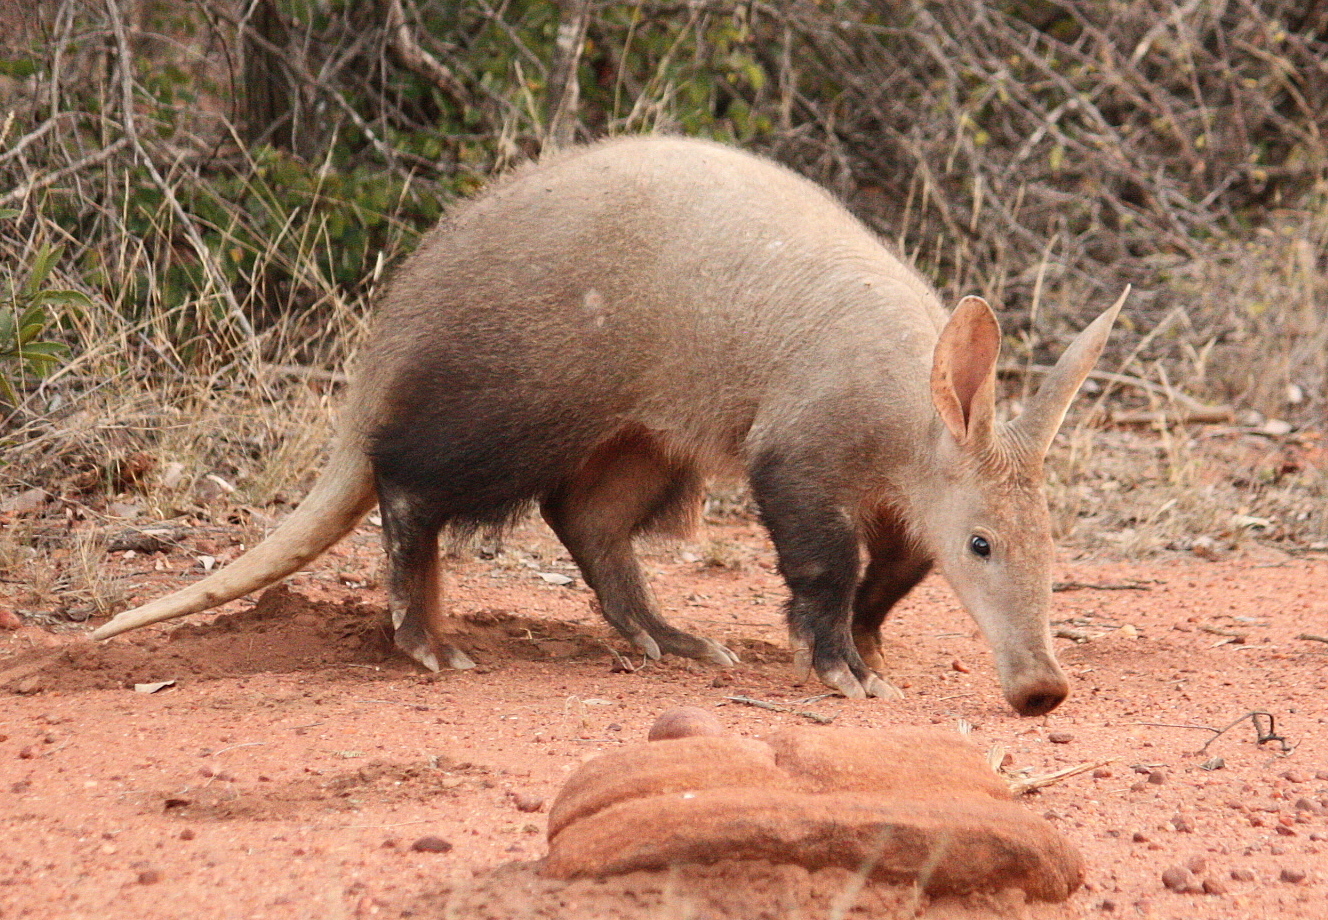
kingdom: Animalia
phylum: Chordata
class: Mammalia
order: Tubulidentata
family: Orycteropodidae
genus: Orycteropus
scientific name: Orycteropus afer
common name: Aardvark
